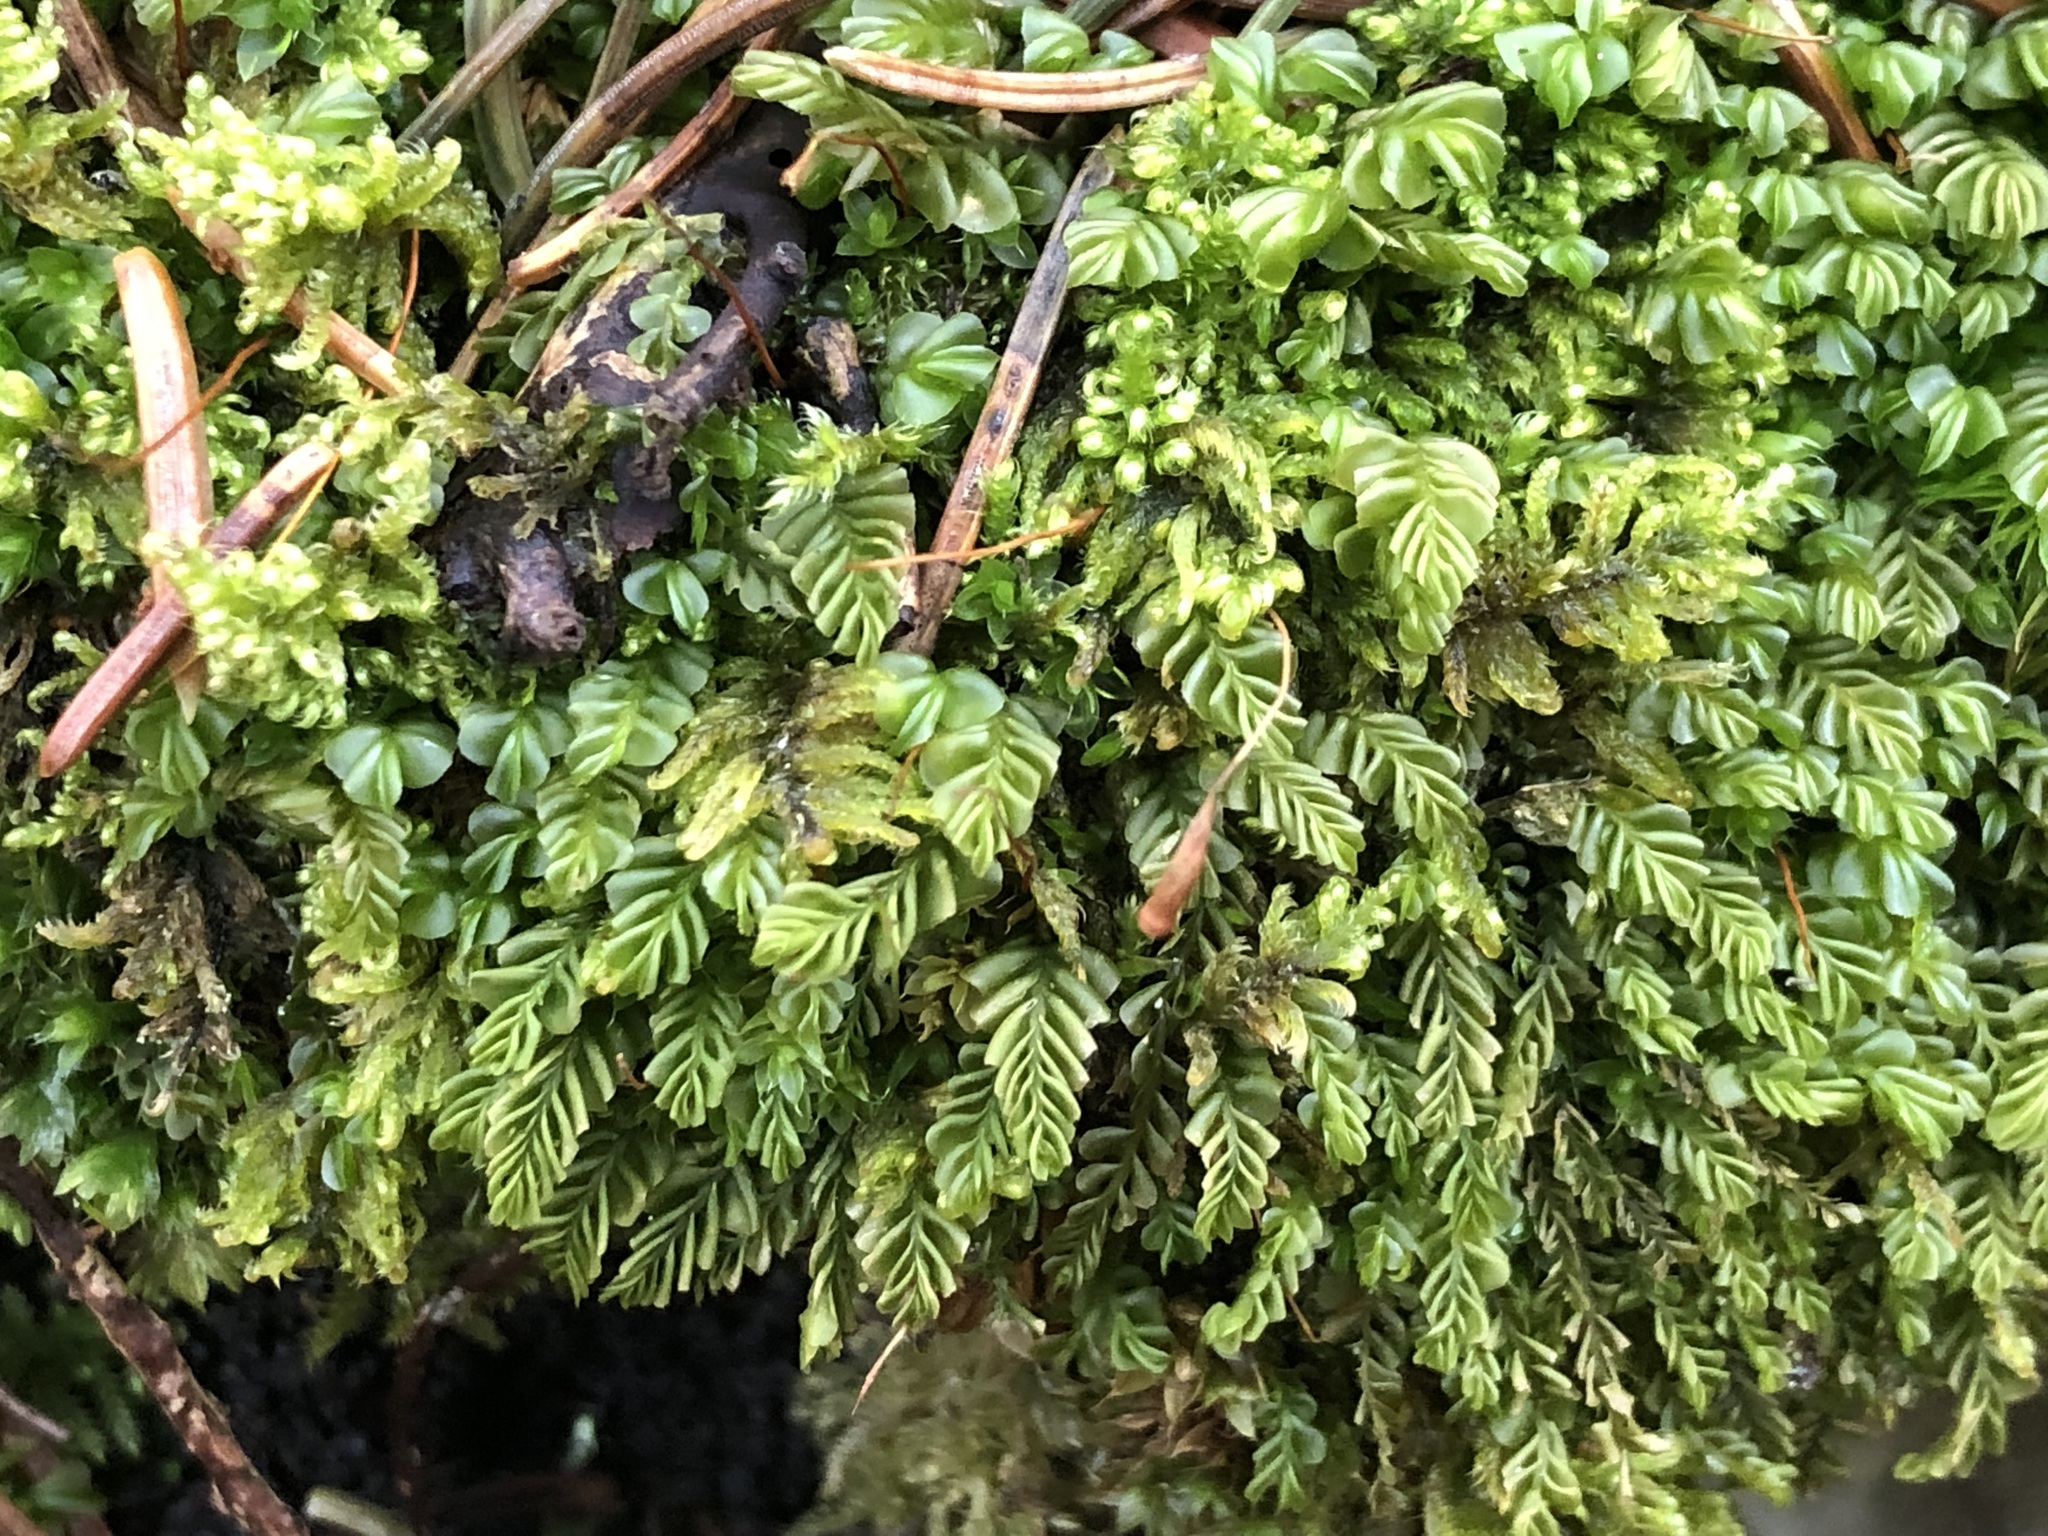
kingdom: Plantae
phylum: Marchantiophyta
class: Jungermanniopsida
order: Jungermanniales
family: Plagiochilaceae
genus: Plagiochila
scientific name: Plagiochila porelloides
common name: Lesser featherwort
